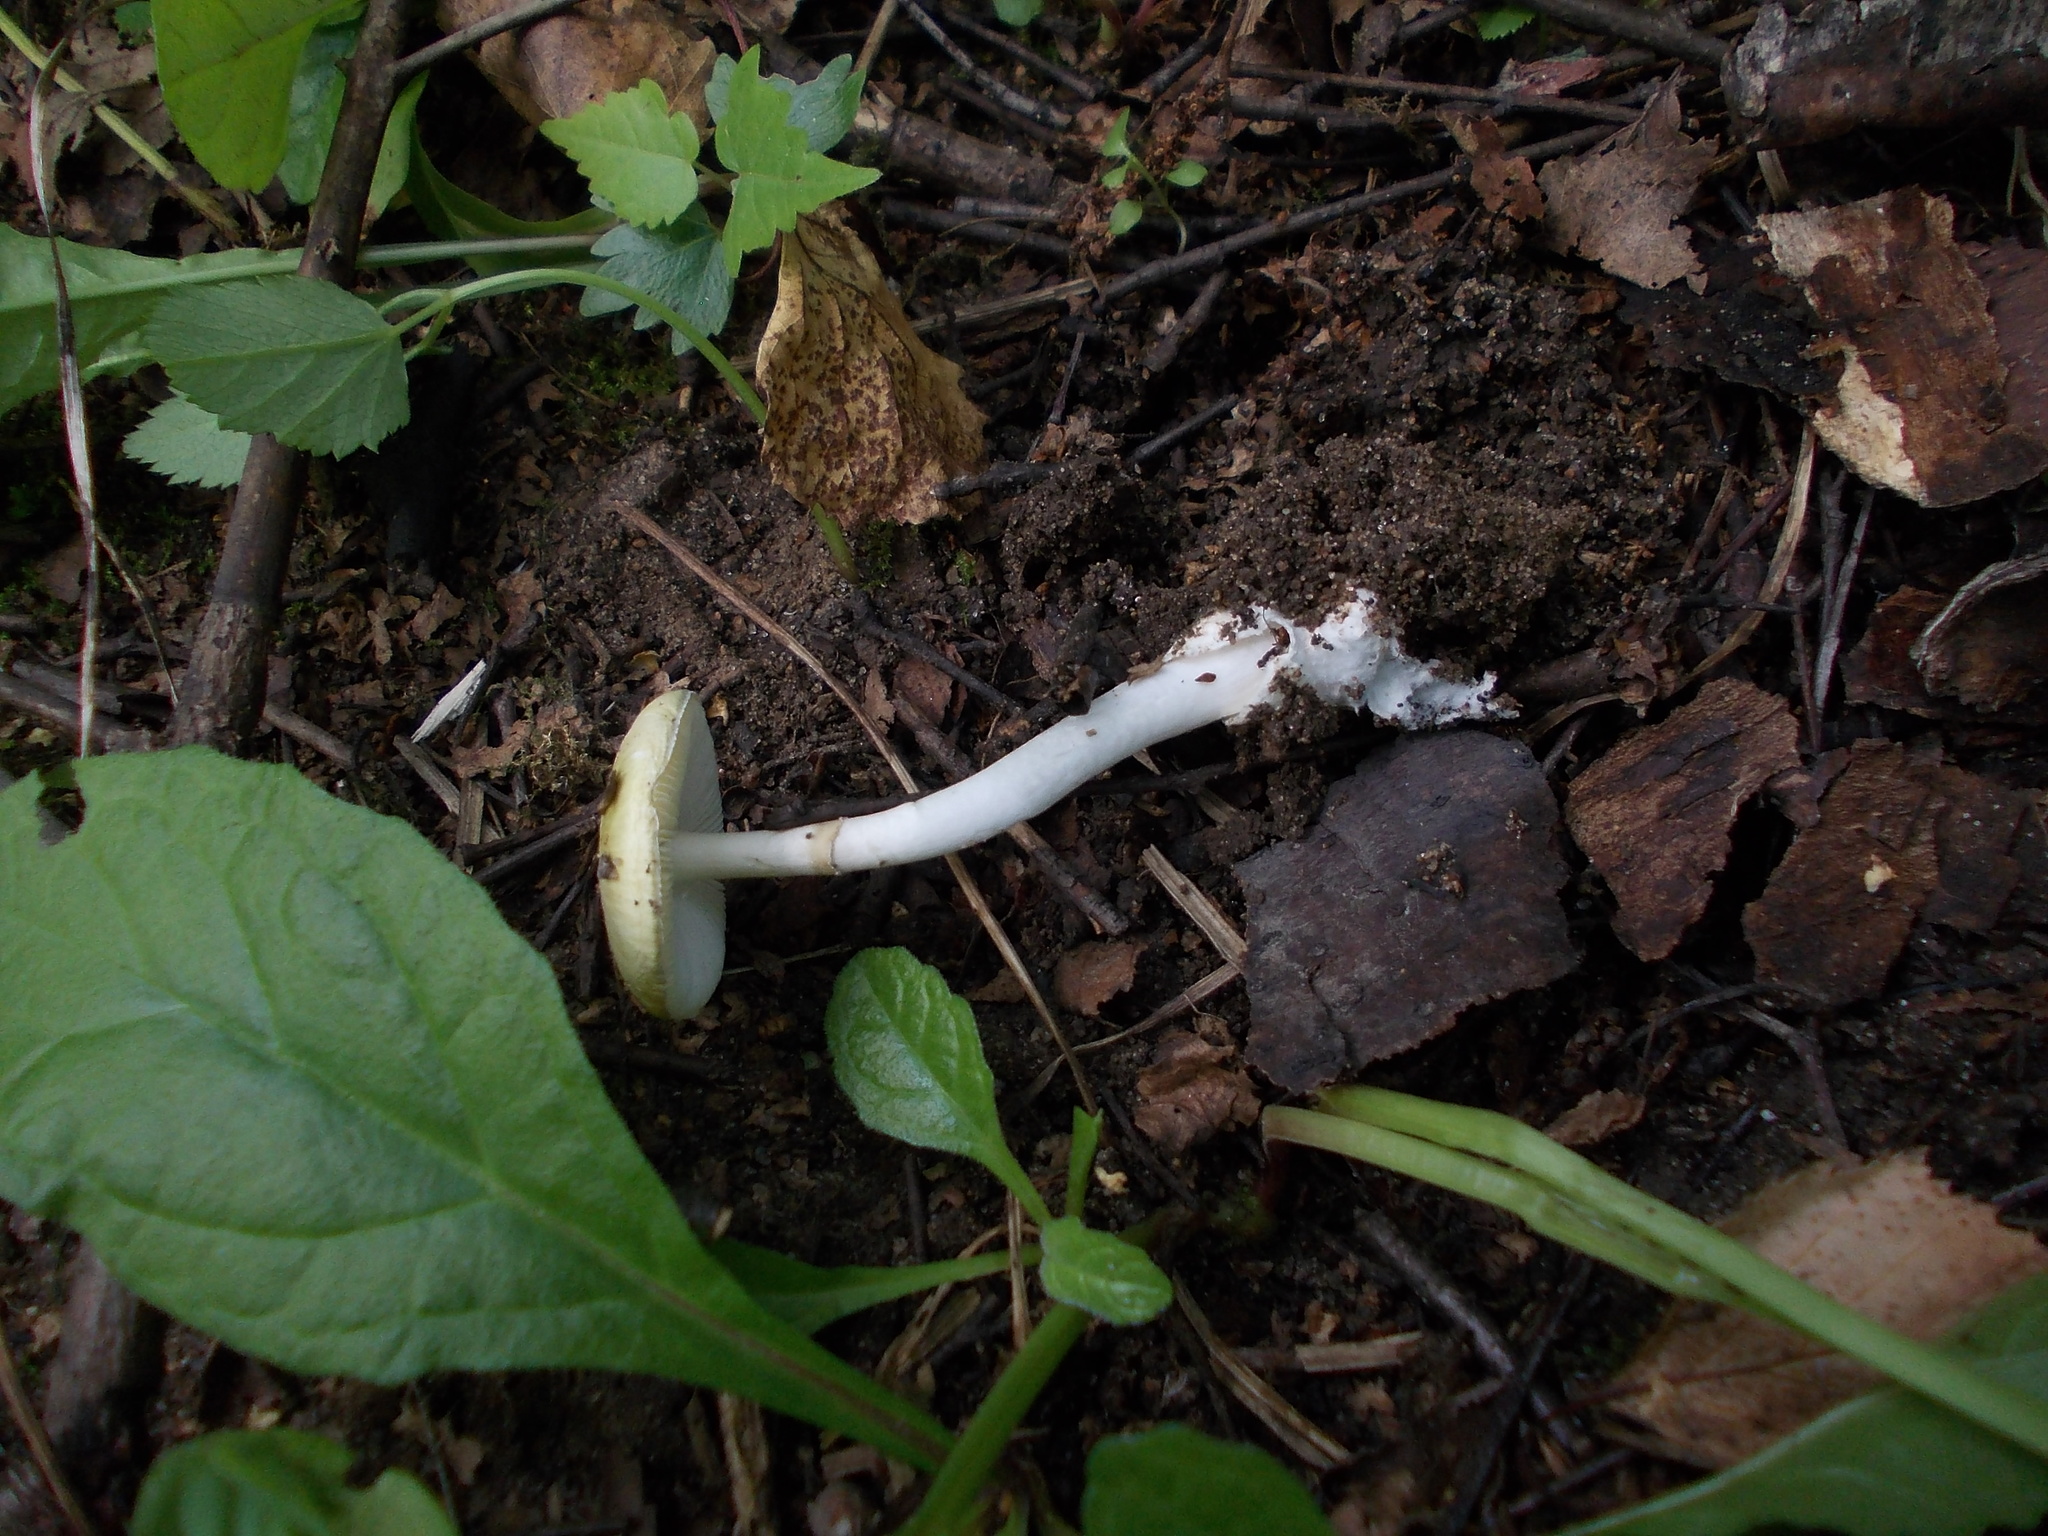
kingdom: Fungi
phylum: Basidiomycota
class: Agaricomycetes
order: Agaricales
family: Amanitaceae
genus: Amanita
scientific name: Amanita phalloides
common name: Death cap
